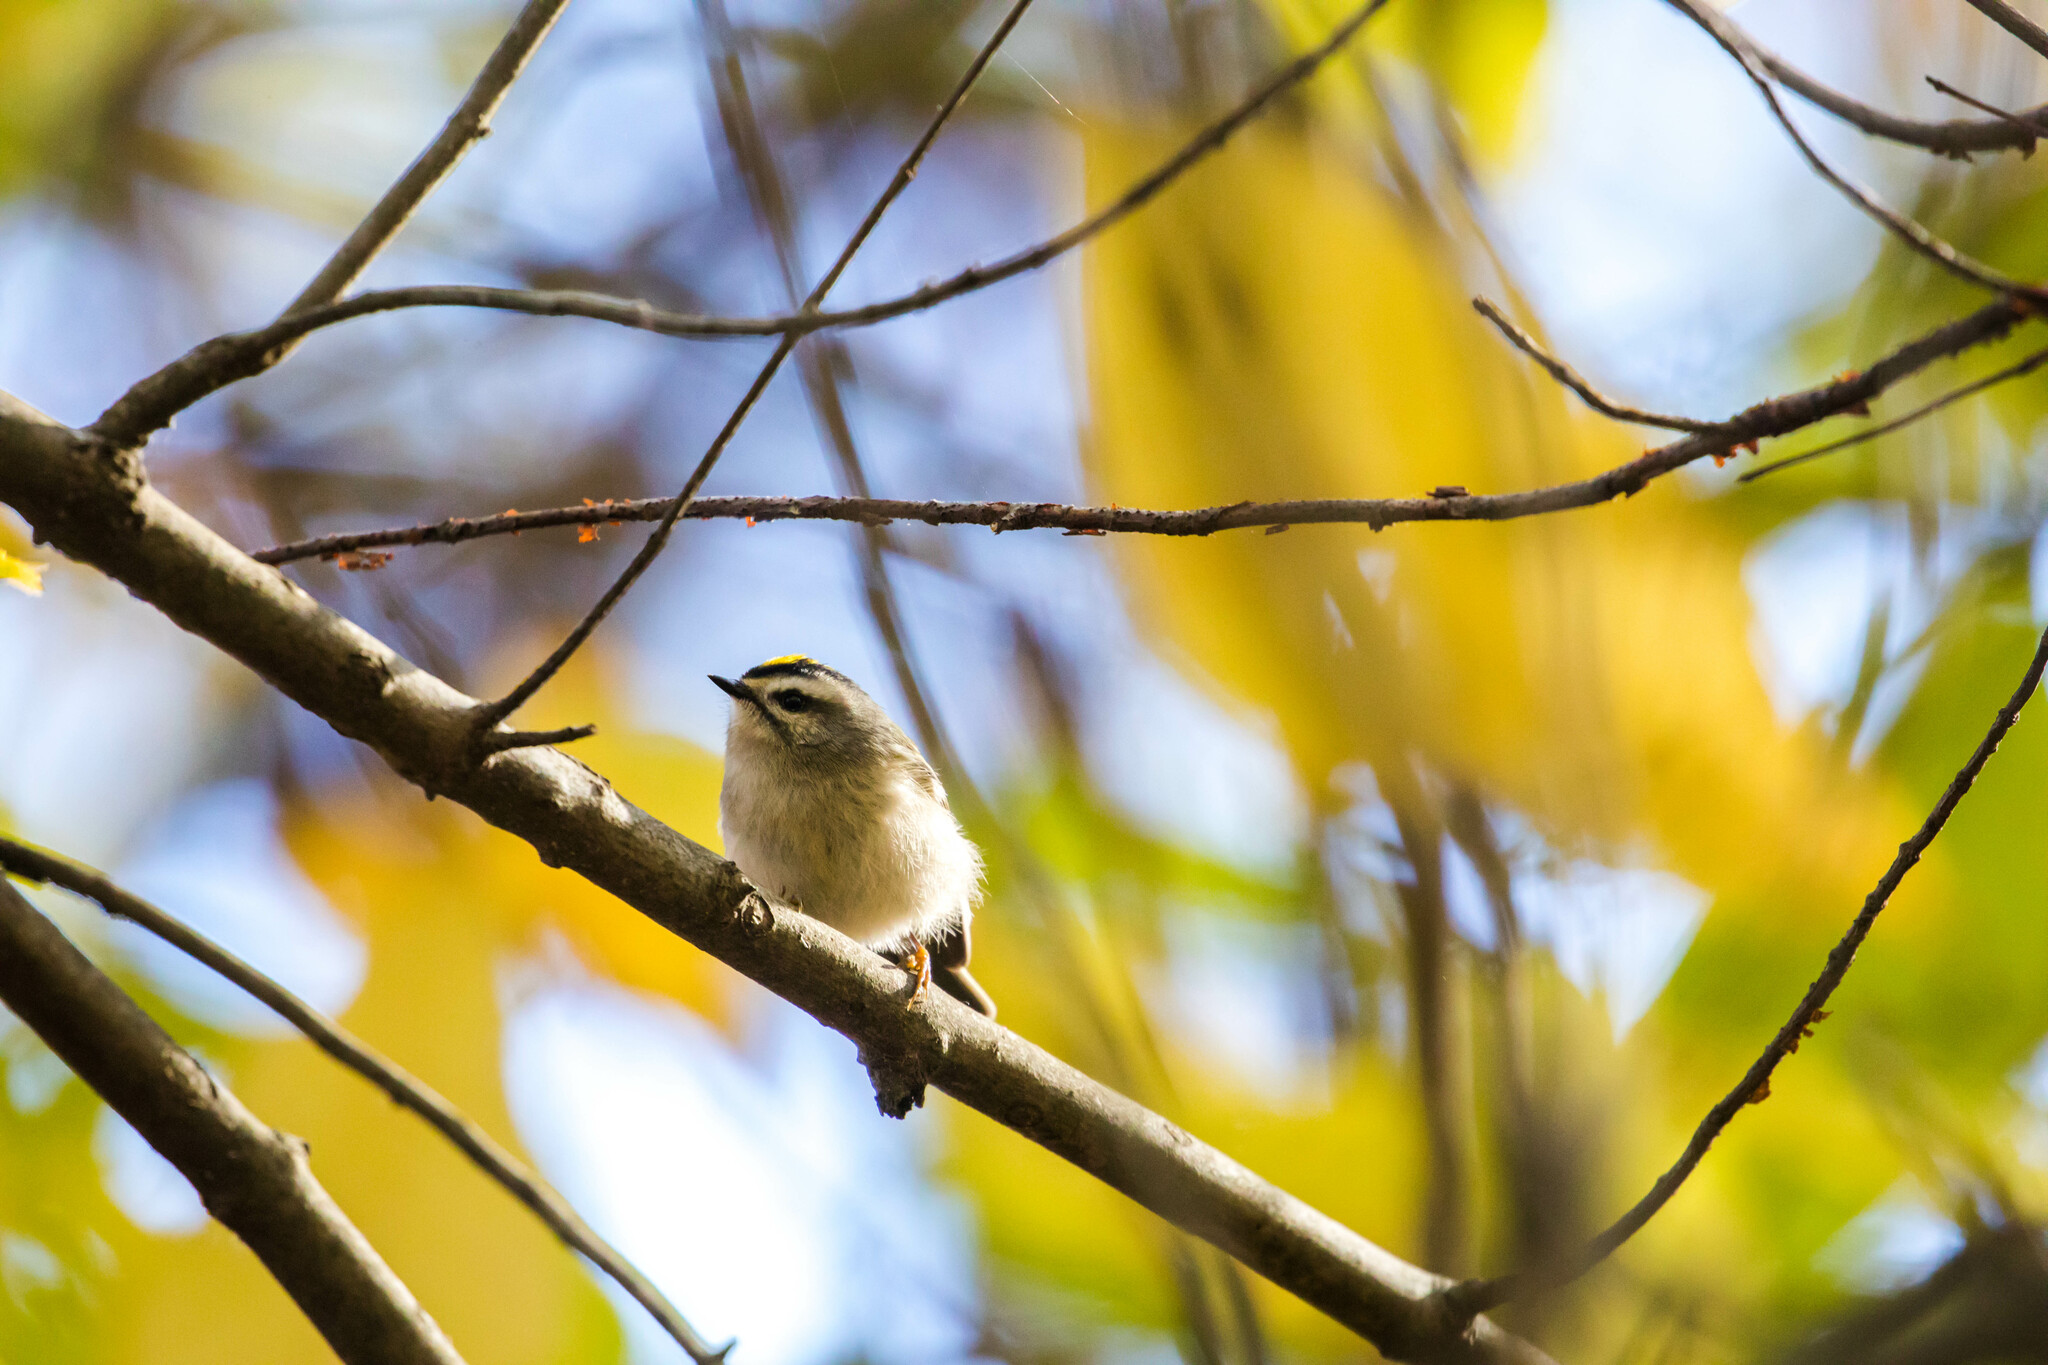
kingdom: Animalia
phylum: Chordata
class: Aves
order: Passeriformes
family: Regulidae
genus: Regulus
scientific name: Regulus satrapa
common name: Golden-crowned kinglet
